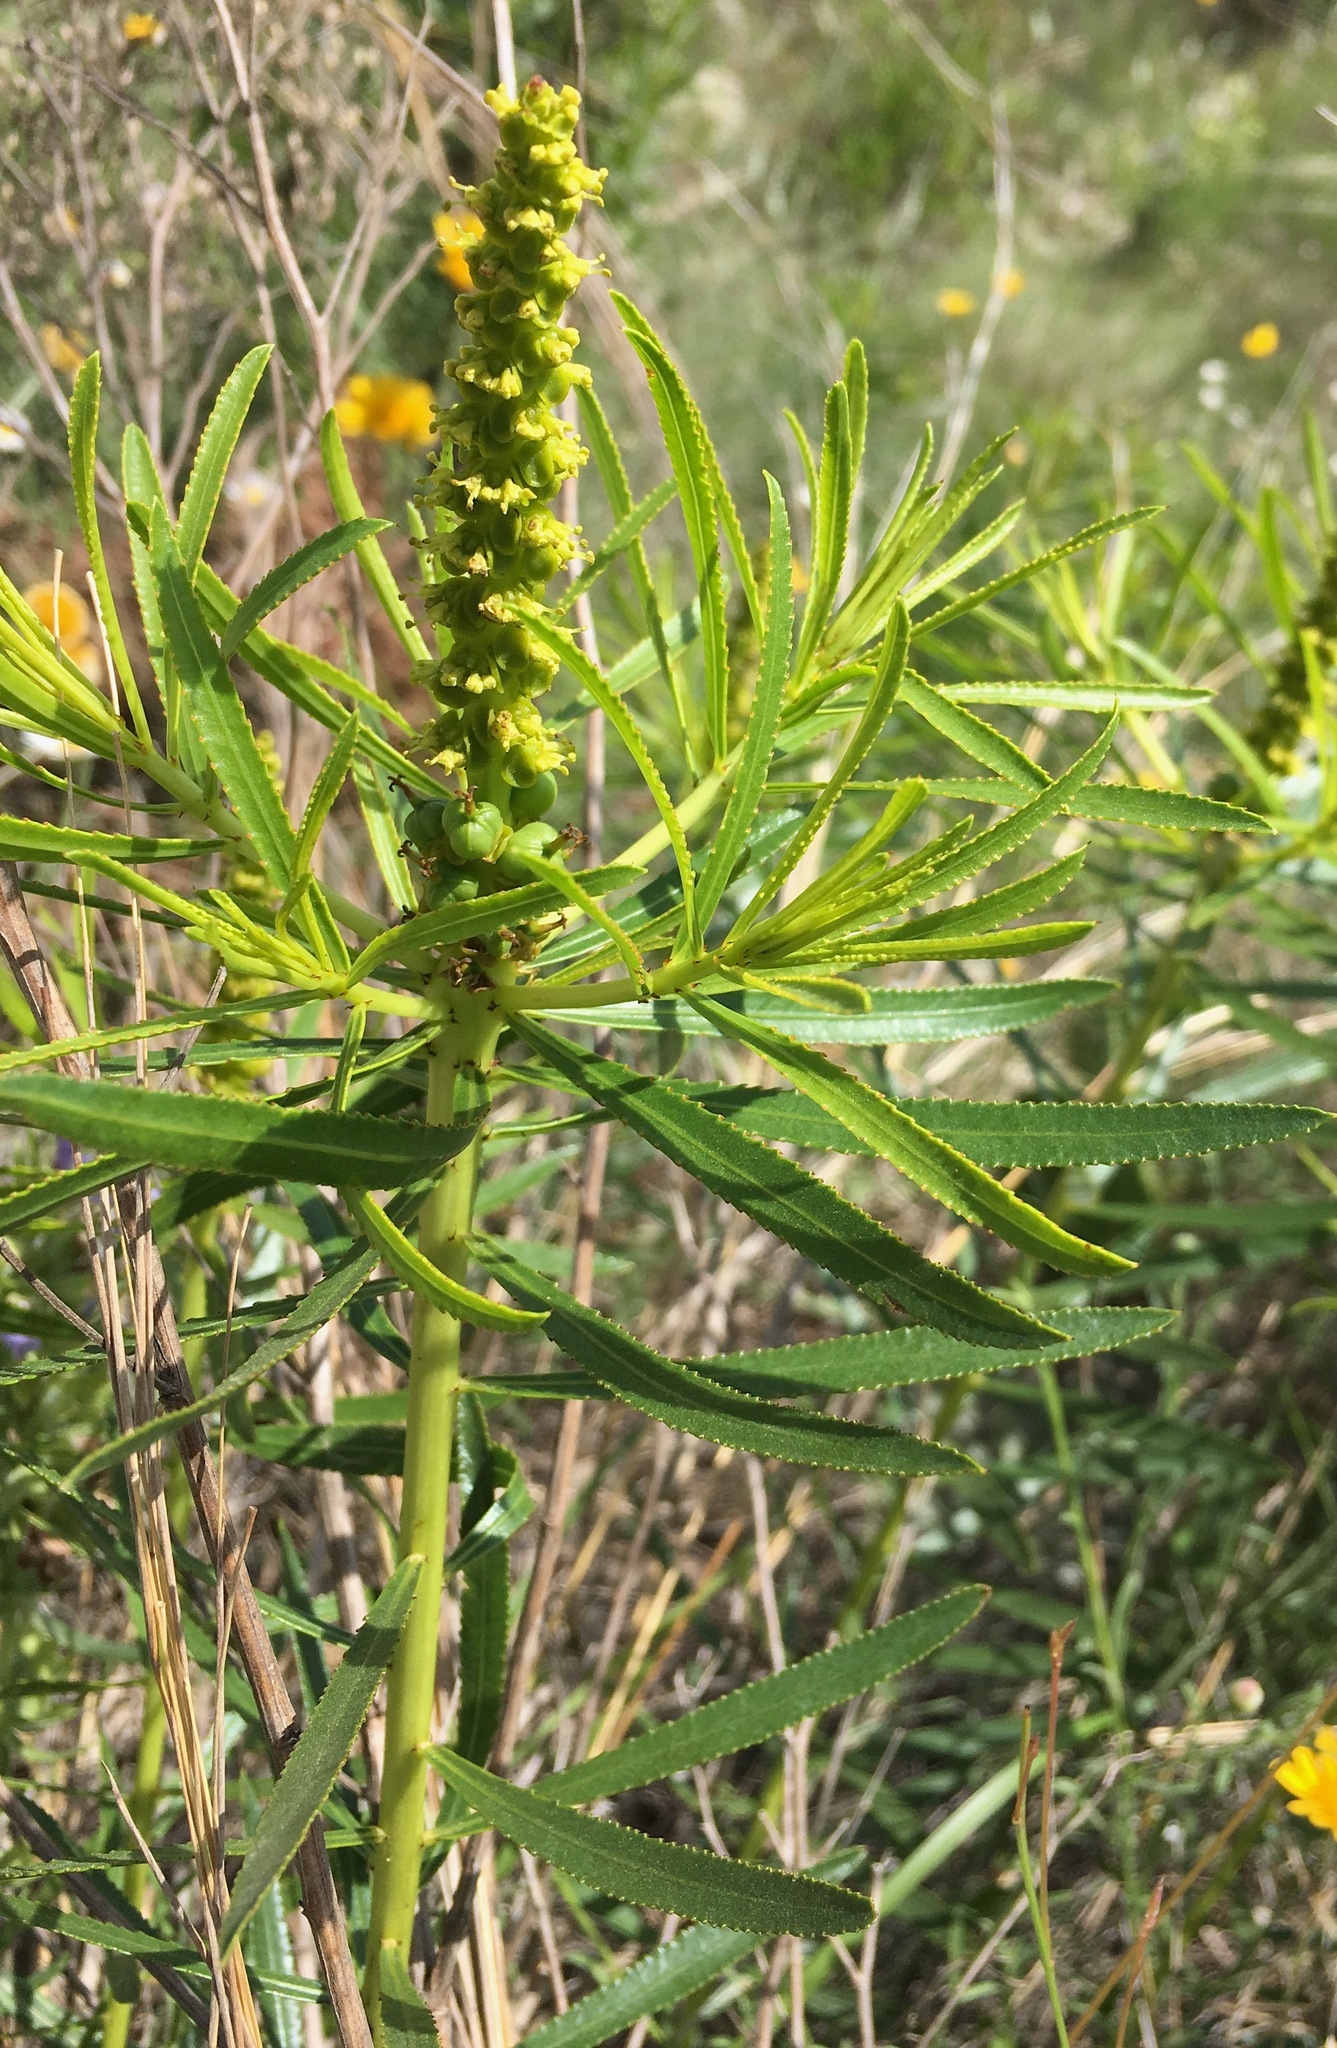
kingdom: Plantae
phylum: Tracheophyta
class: Magnoliopsida
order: Malpighiales
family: Euphorbiaceae
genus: Stillingia
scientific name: Stillingia texana
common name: Texas stillingia
